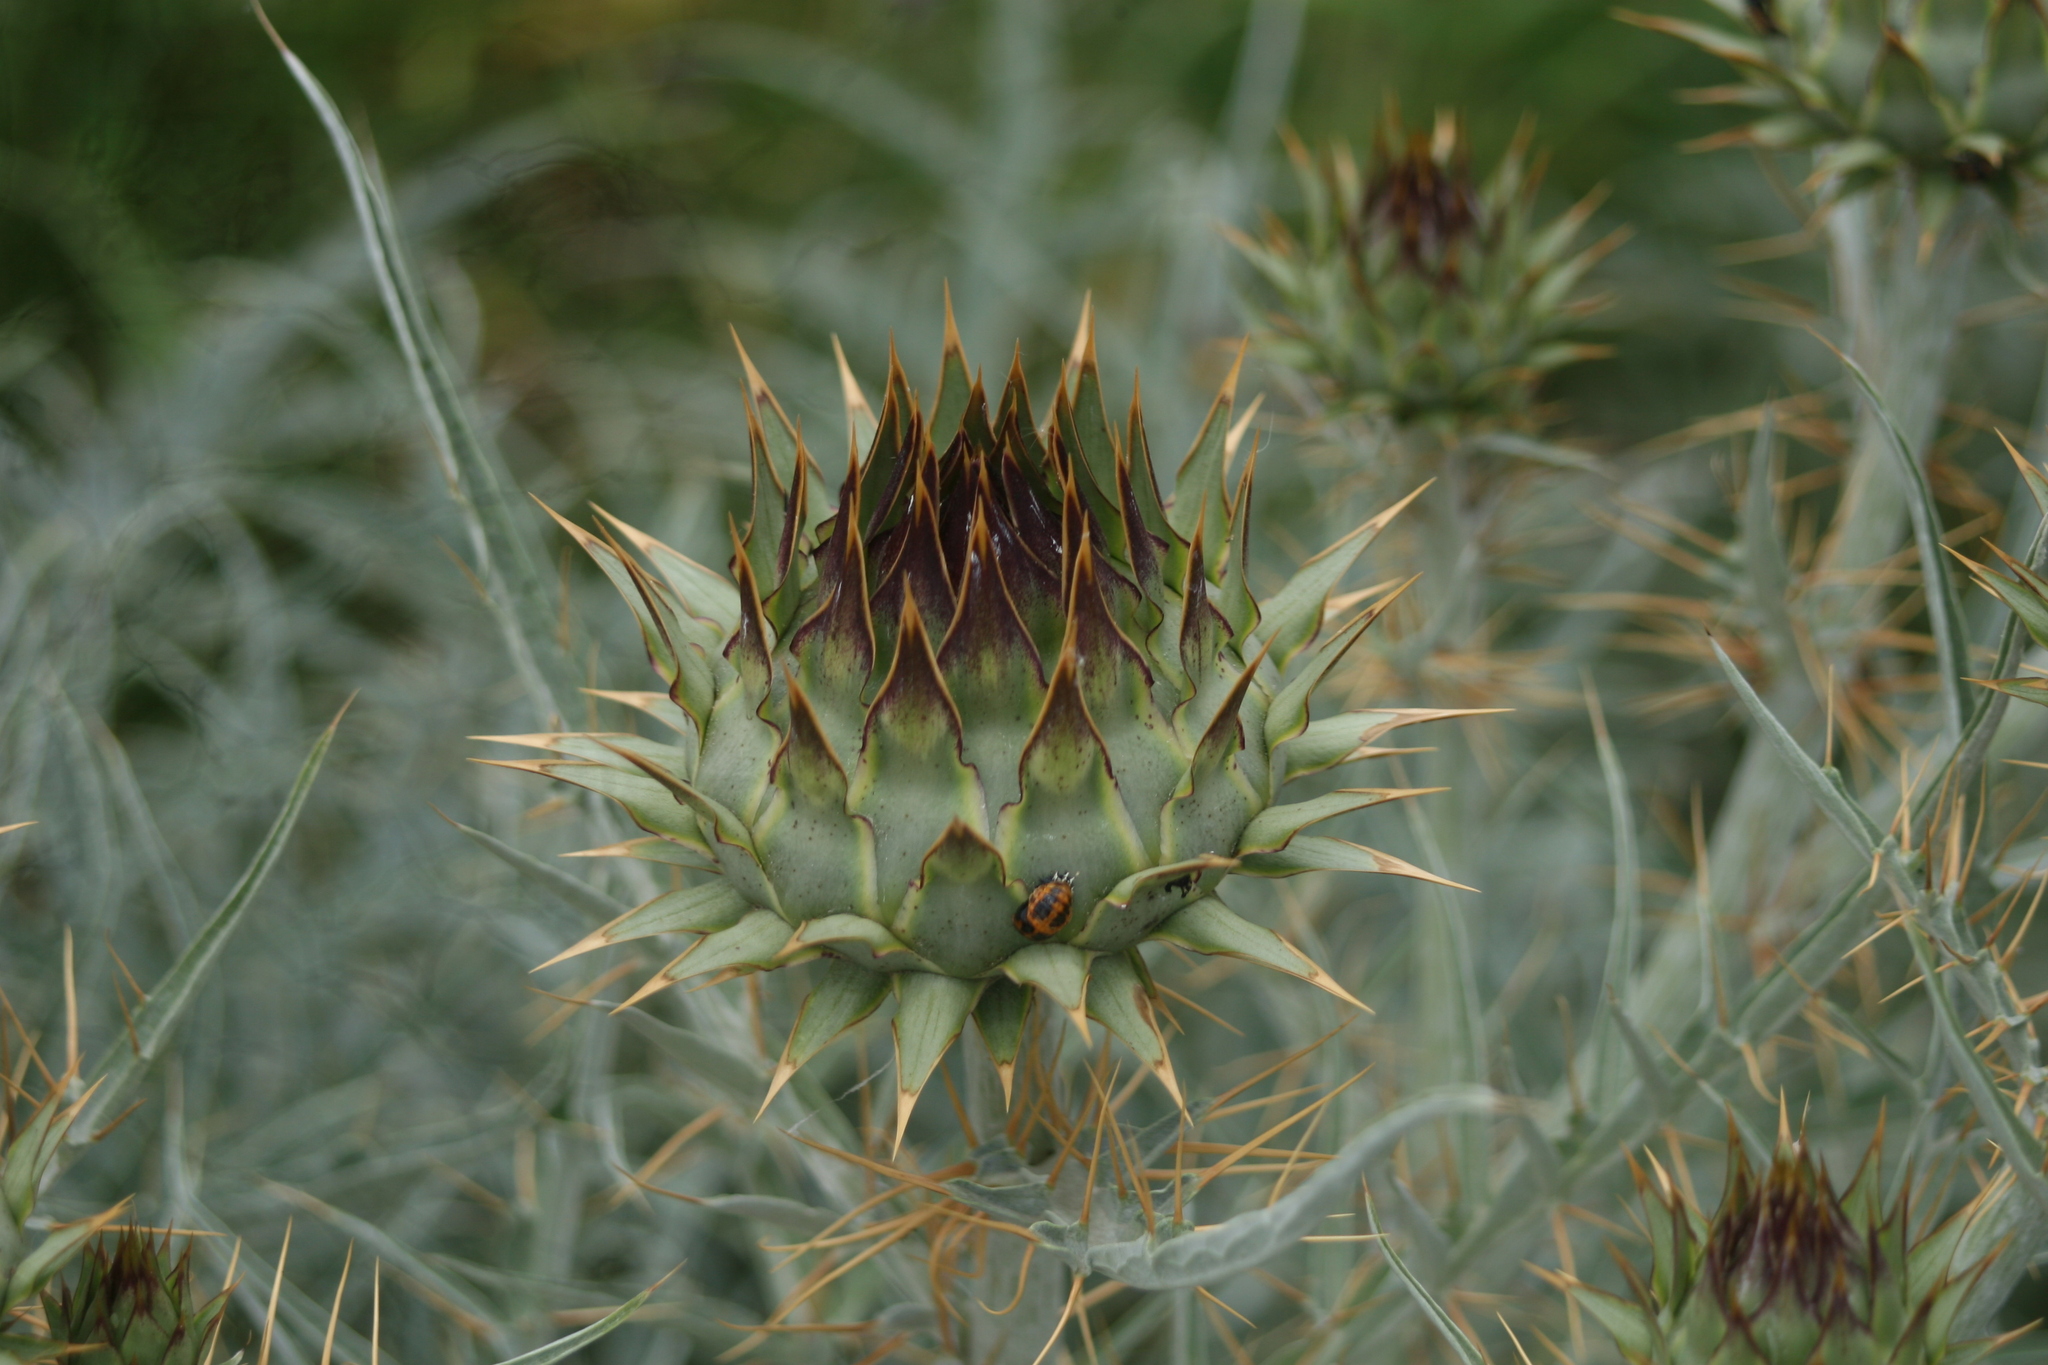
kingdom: Plantae
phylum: Tracheophyta
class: Magnoliopsida
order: Asterales
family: Asteraceae
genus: Cynara
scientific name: Cynara cardunculus
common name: Globe artichoke
